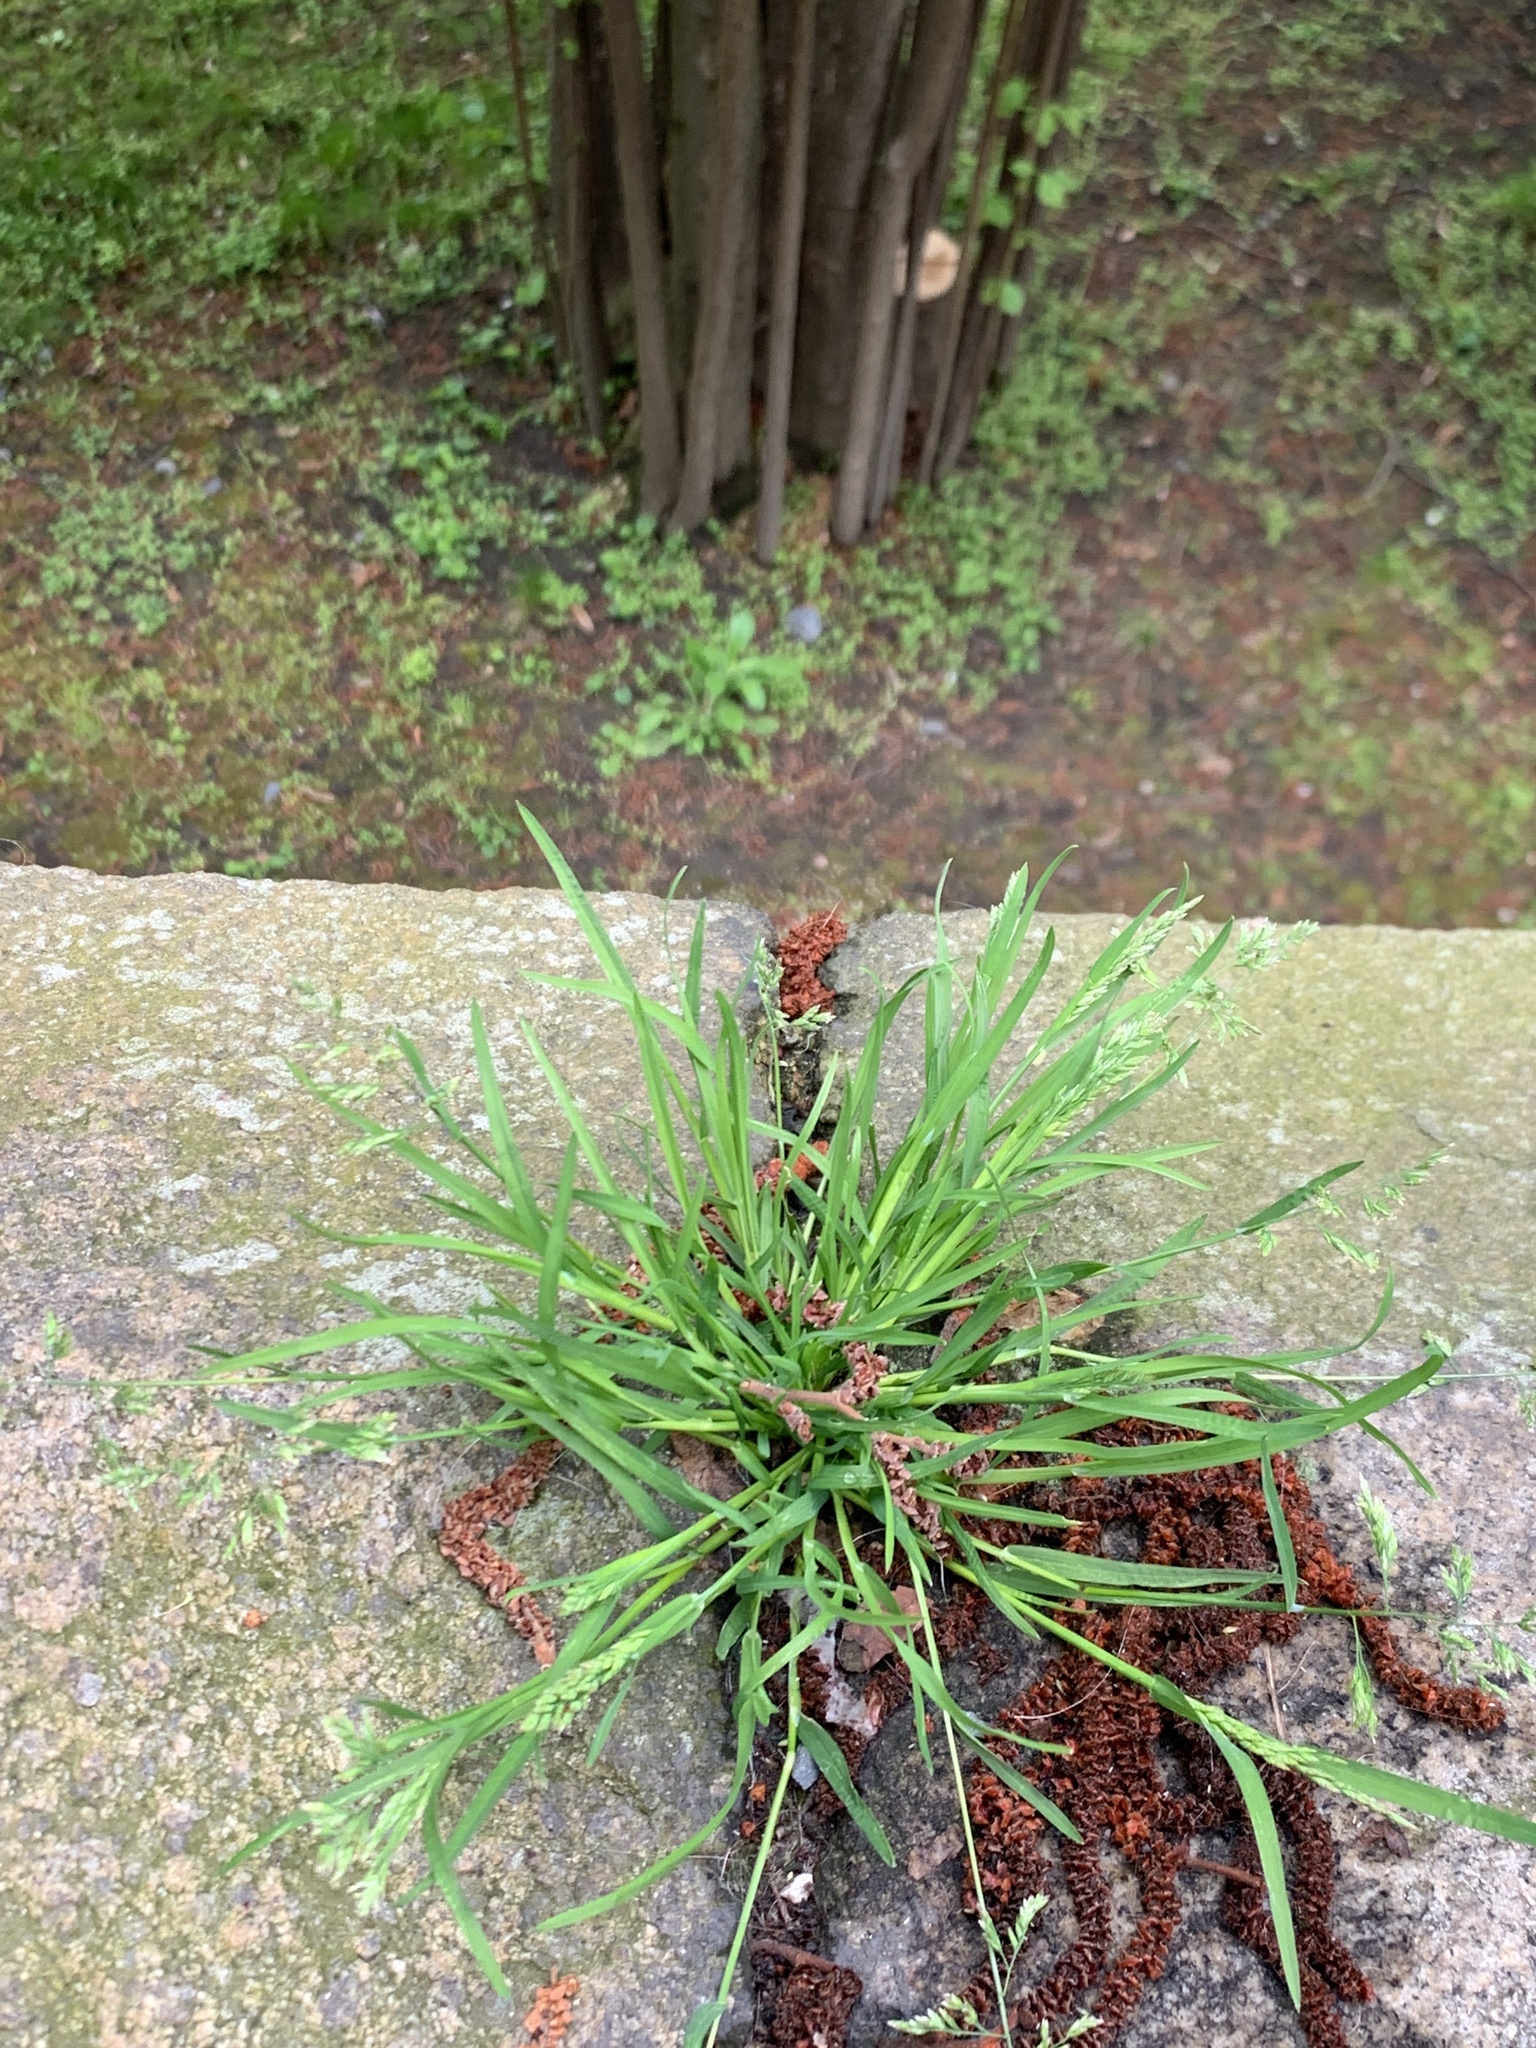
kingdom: Plantae
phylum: Tracheophyta
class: Liliopsida
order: Poales
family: Poaceae
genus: Poa
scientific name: Poa annua
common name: Annual bluegrass
